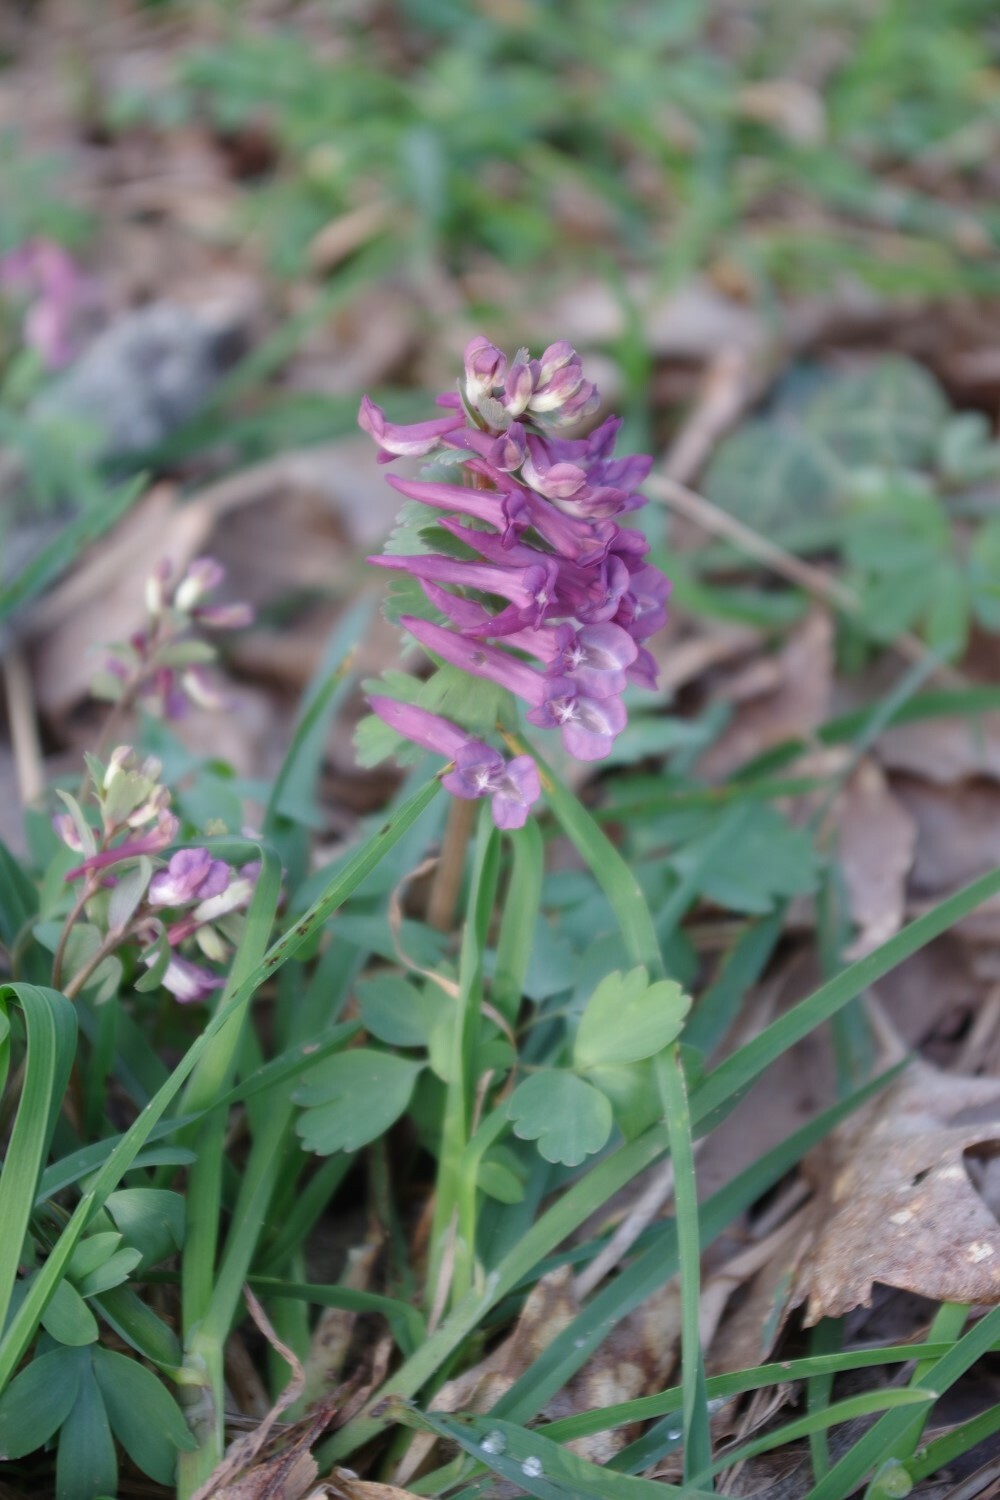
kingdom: Plantae
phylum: Tracheophyta
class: Magnoliopsida
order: Ranunculales
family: Papaveraceae
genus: Corydalis
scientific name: Corydalis solida
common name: Bird-in-a-bush
